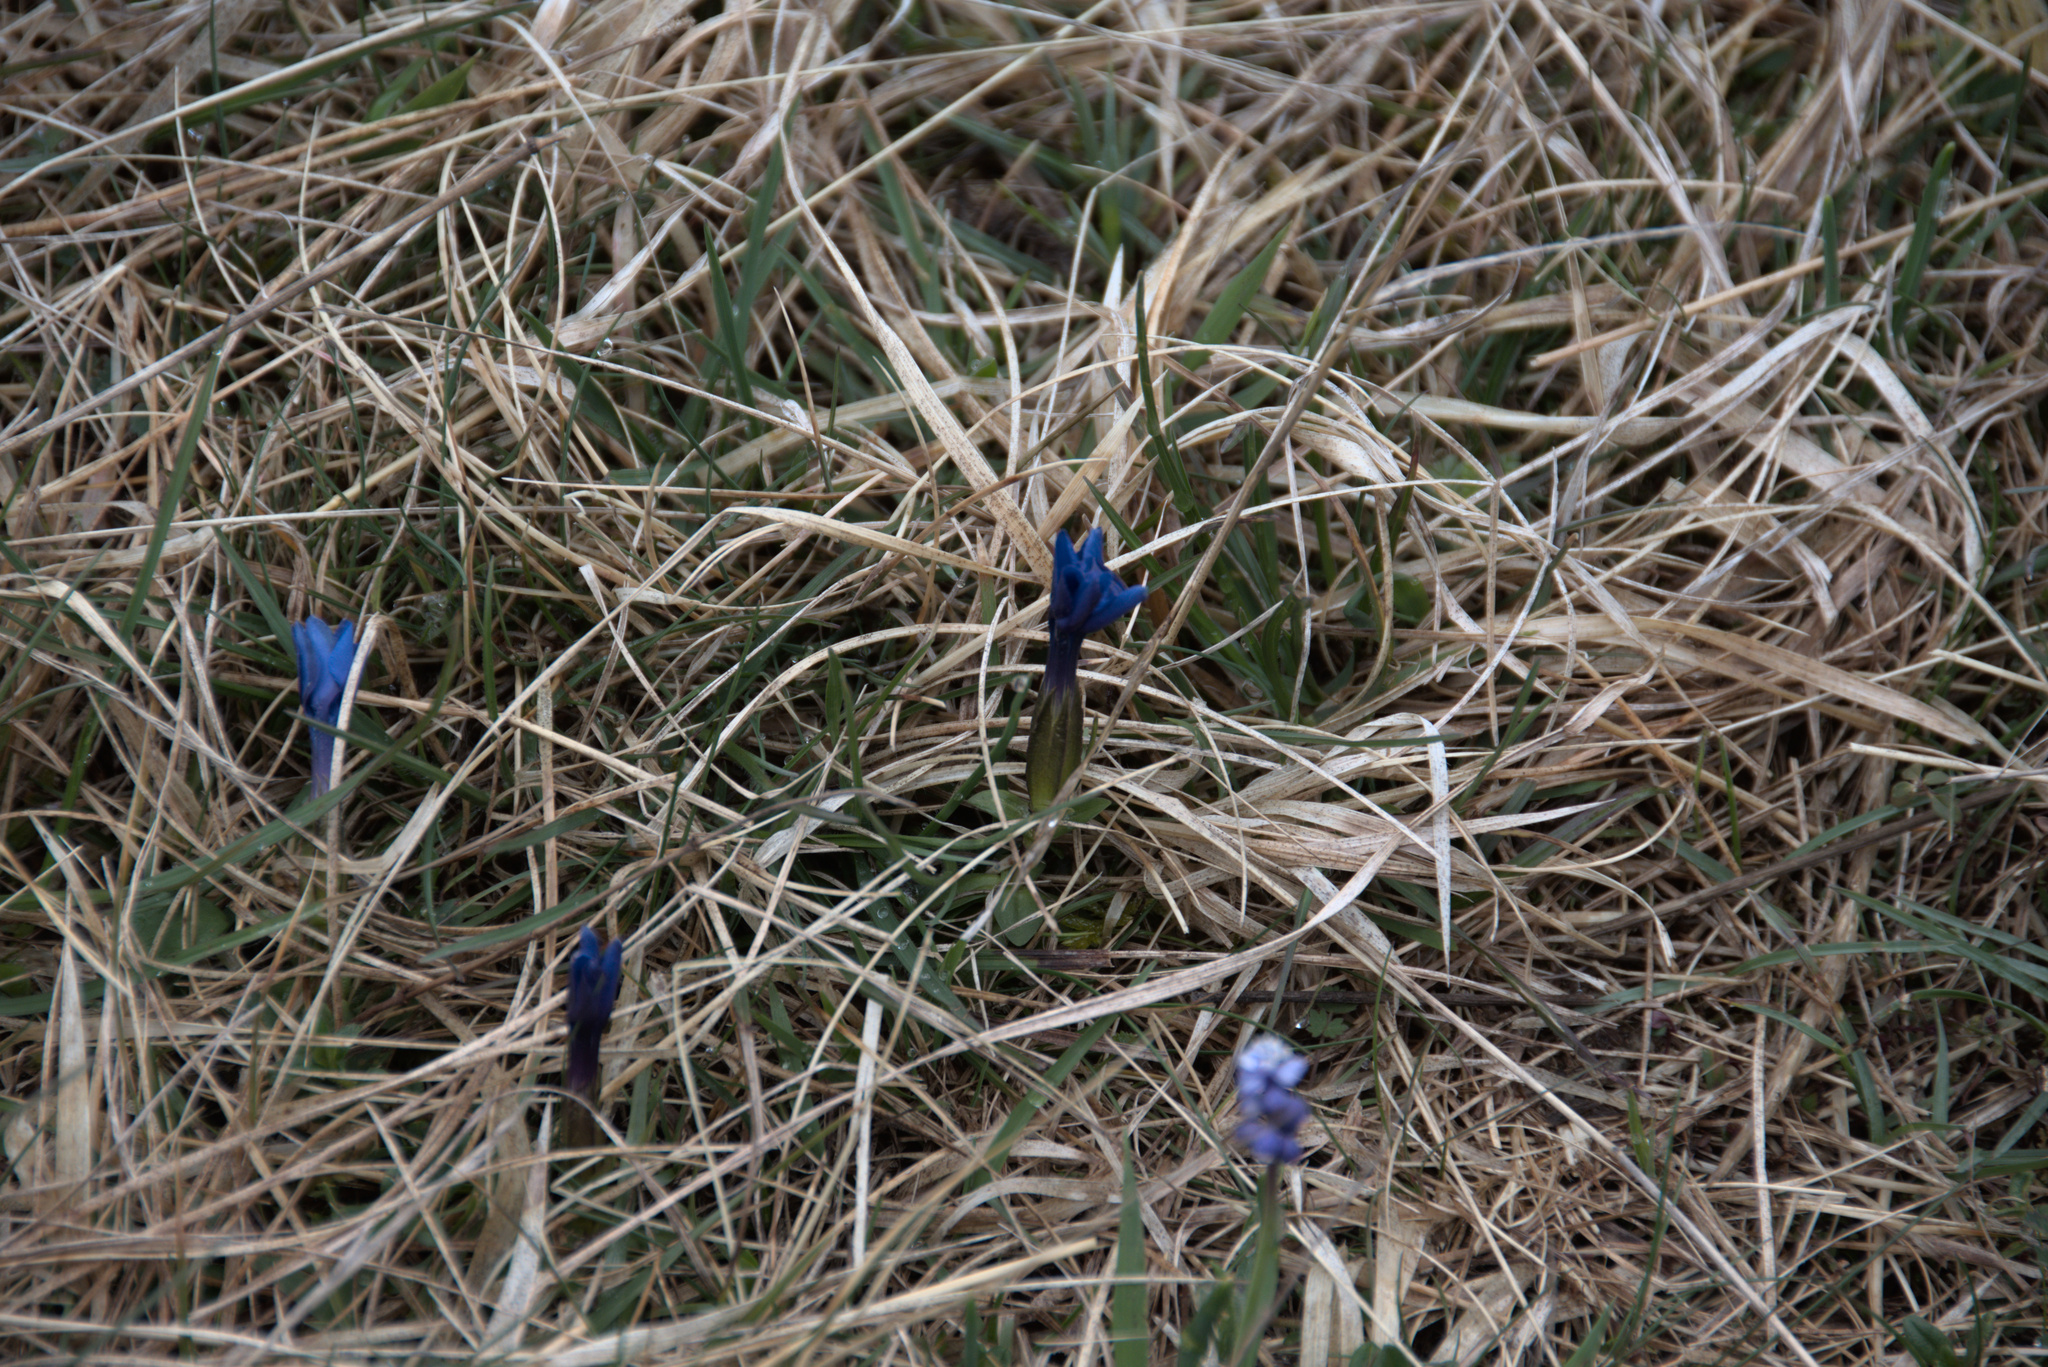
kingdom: Plantae
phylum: Tracheophyta
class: Magnoliopsida
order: Gentianales
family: Gentianaceae
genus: Gentiana
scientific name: Gentiana verna
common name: Spring gentian
